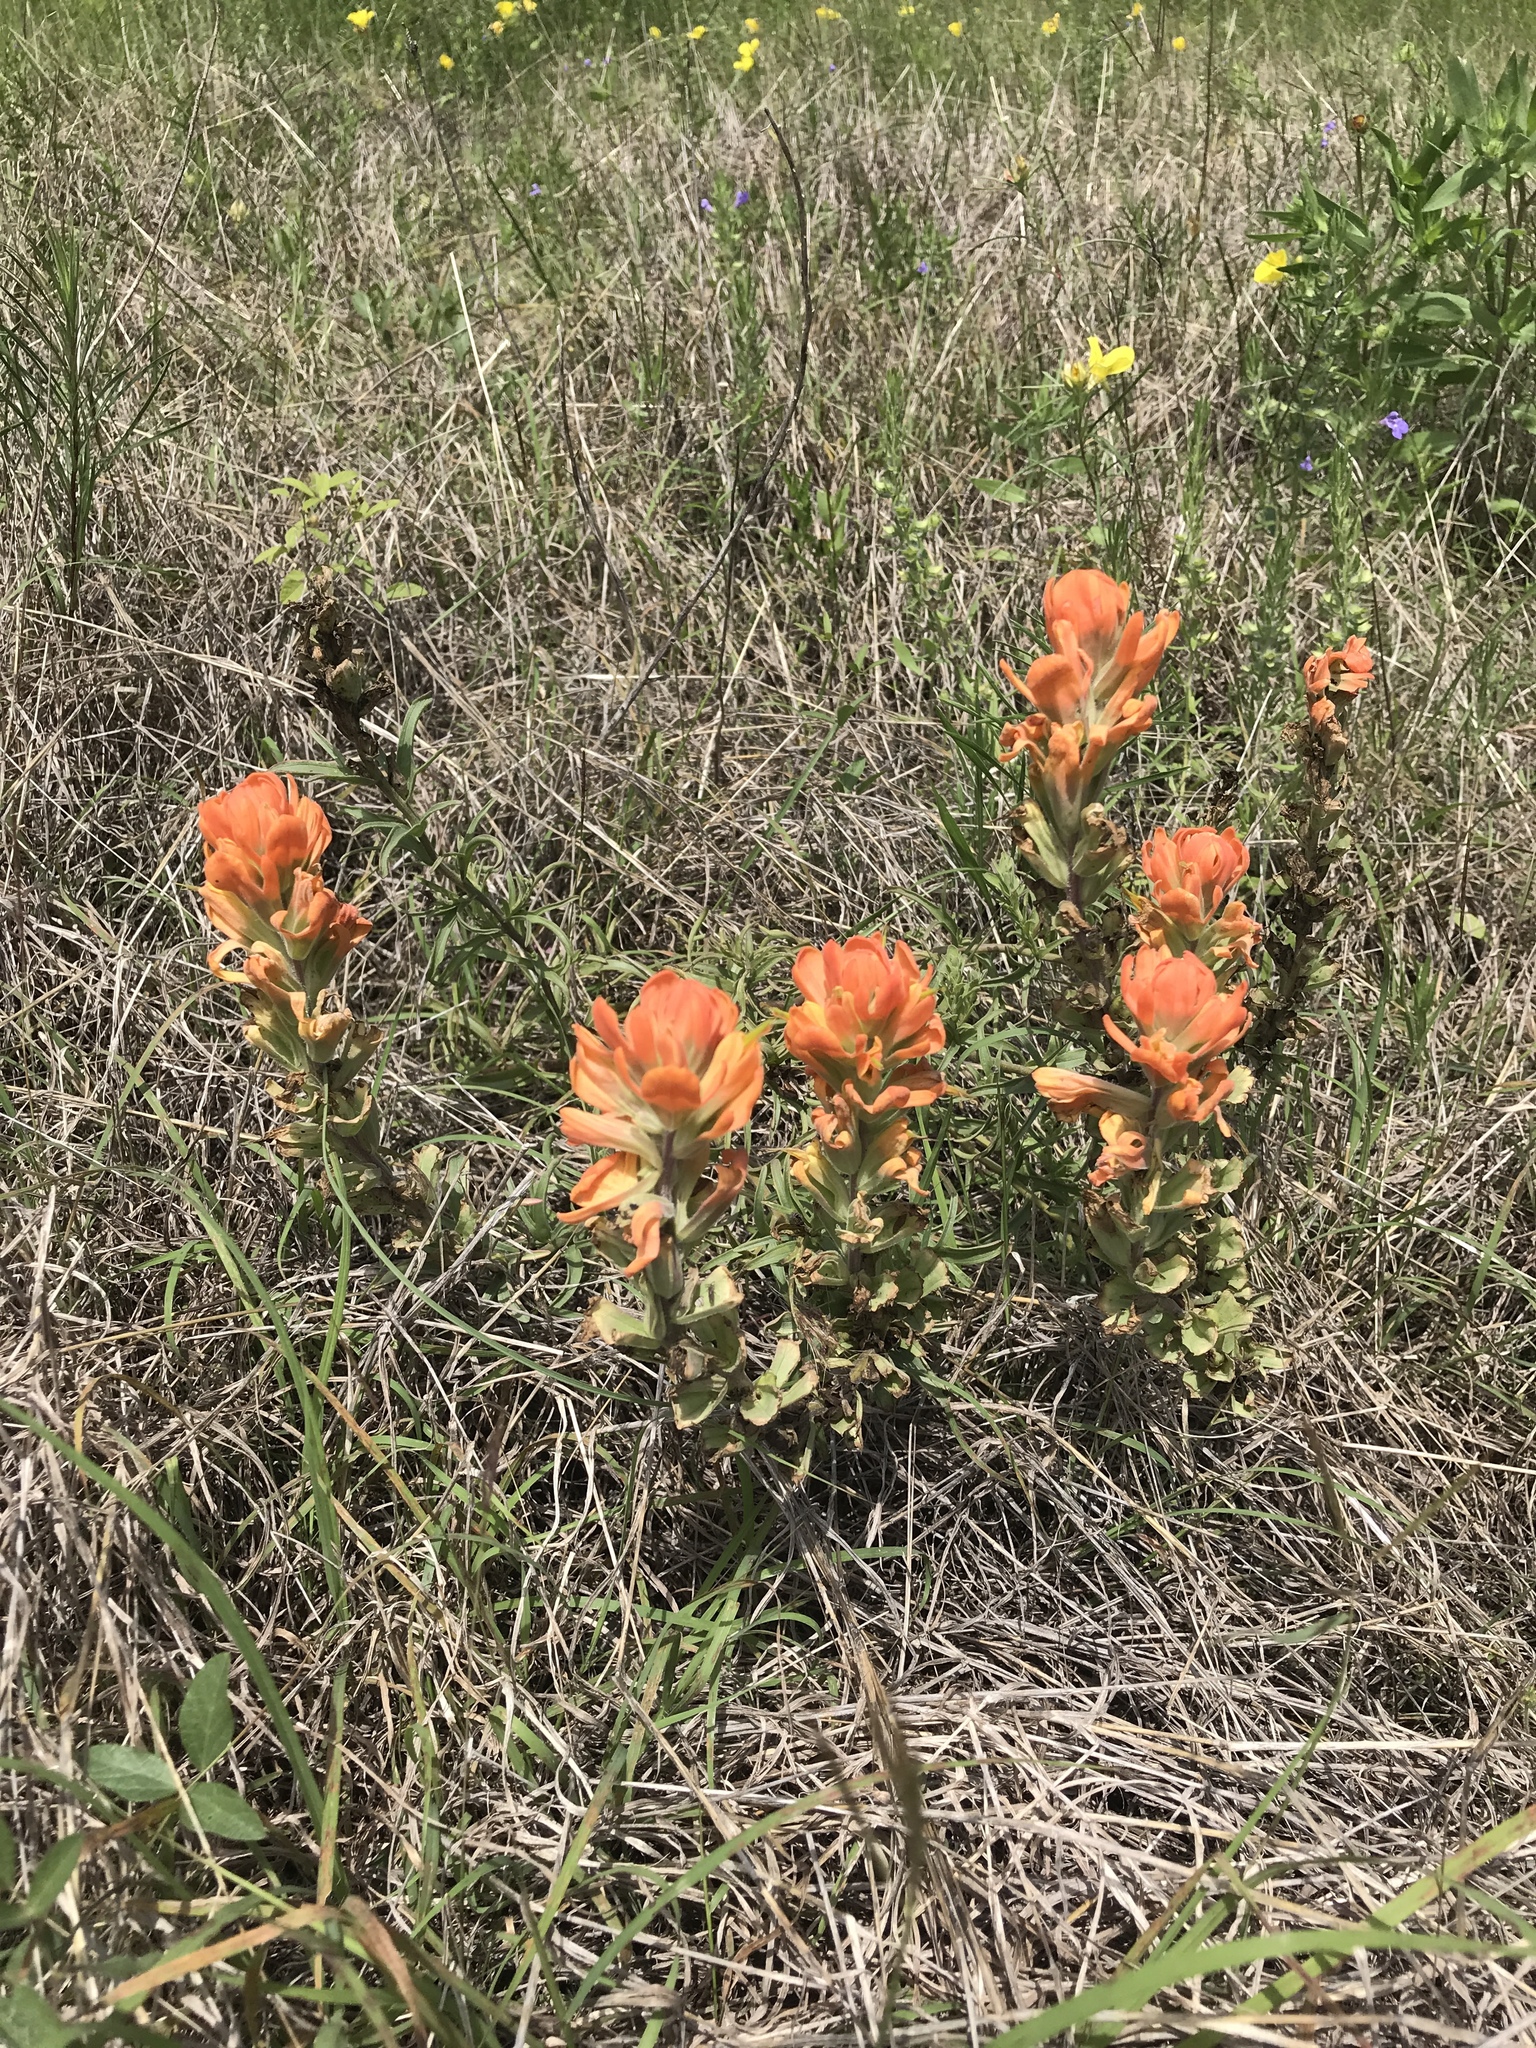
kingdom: Plantae
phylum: Tracheophyta
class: Magnoliopsida
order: Lamiales
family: Orobanchaceae
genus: Castilleja
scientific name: Castilleja lindheimeri
